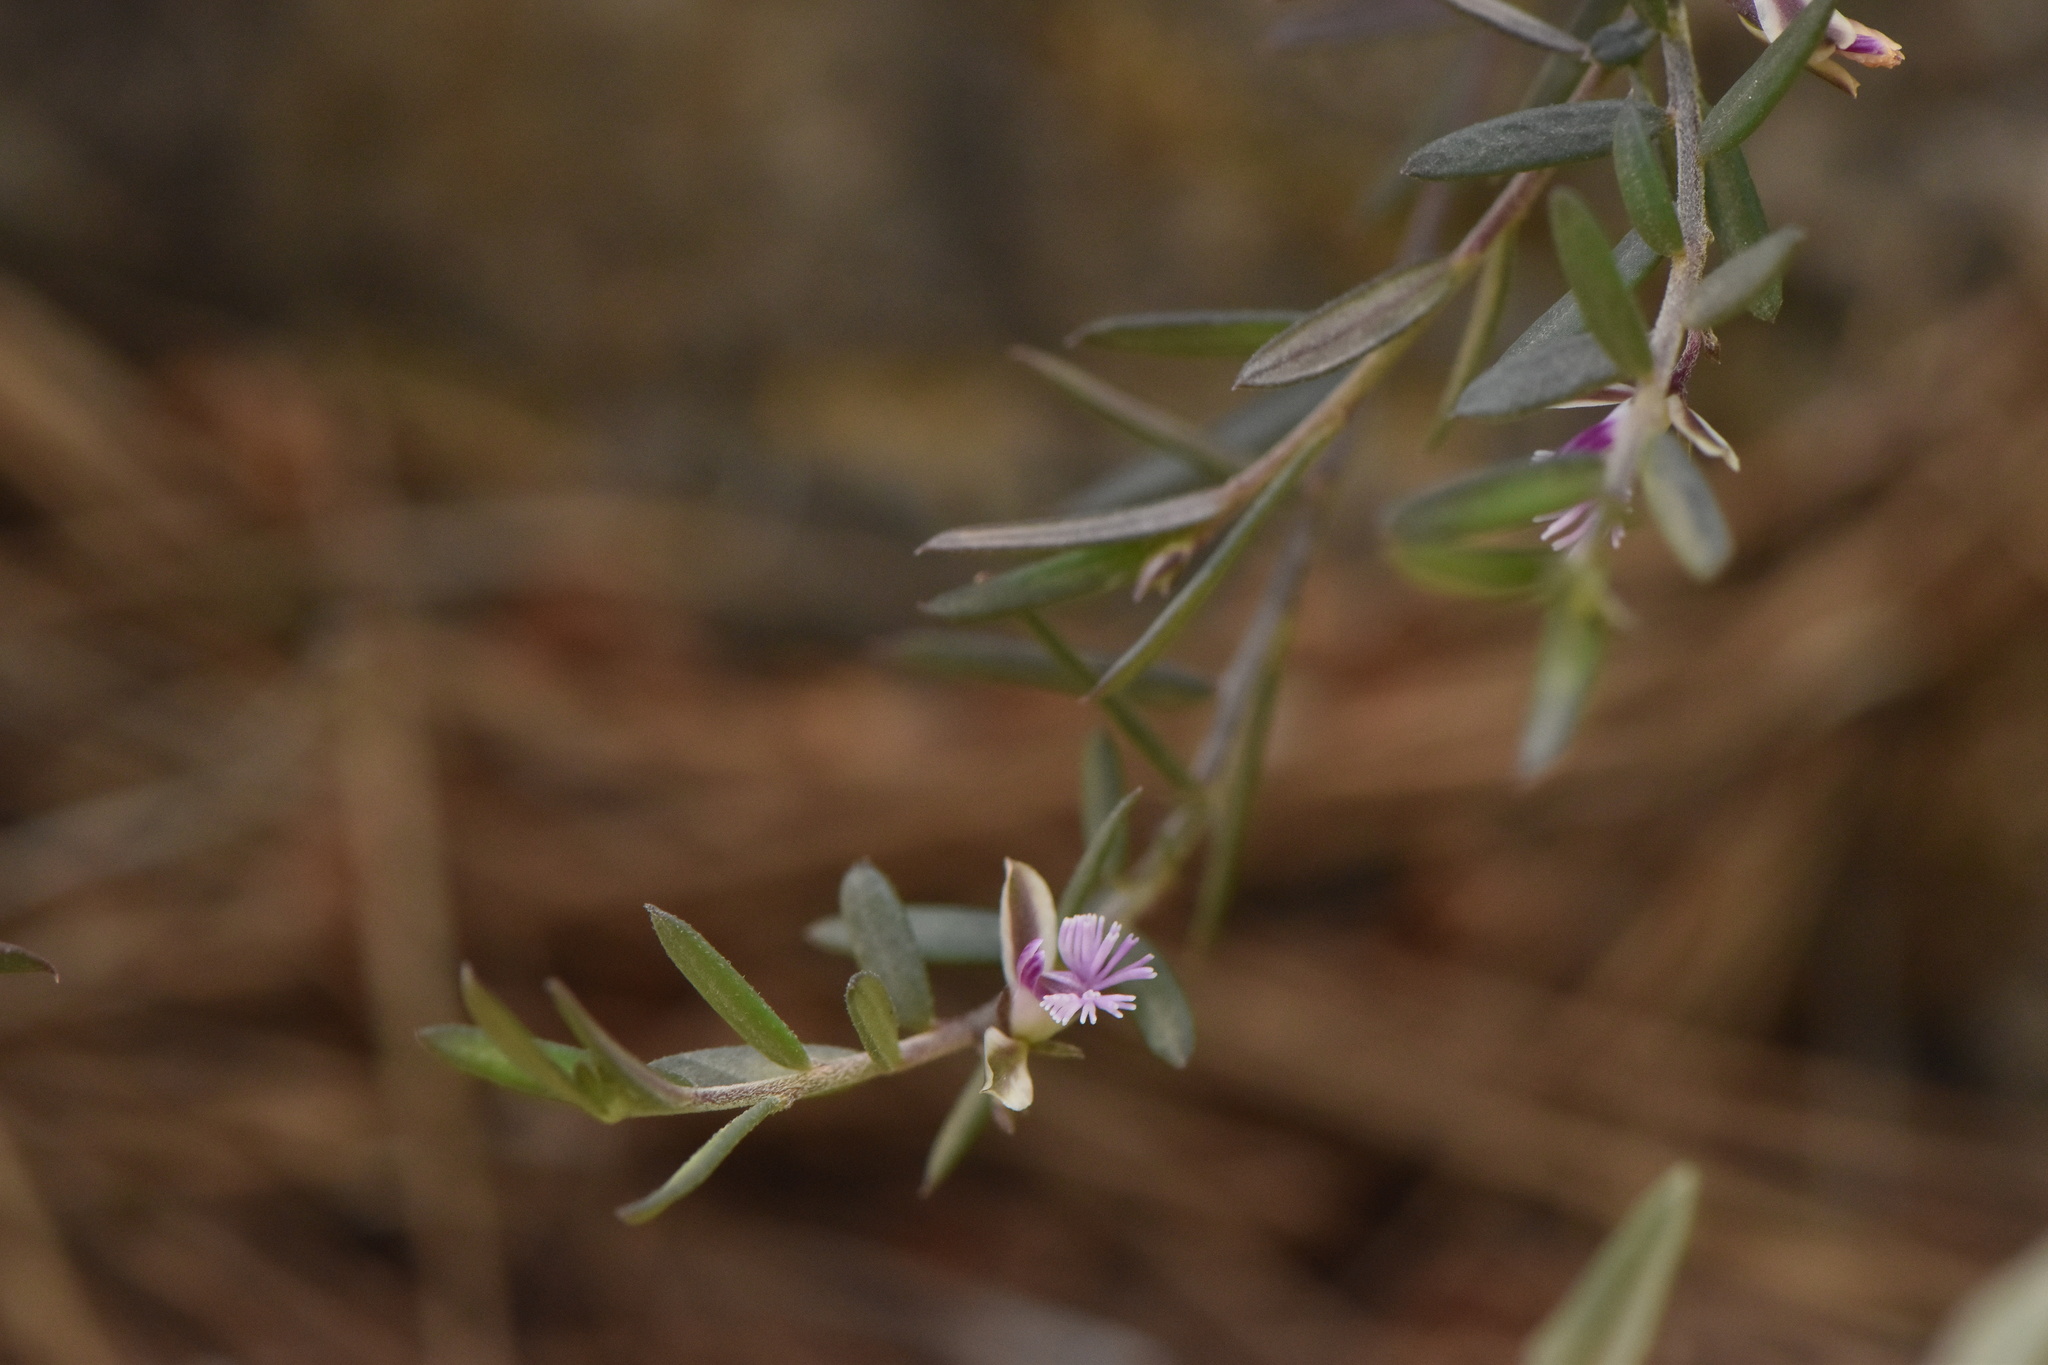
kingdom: Plantae
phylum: Tracheophyta
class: Magnoliopsida
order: Fabales
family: Polygalaceae
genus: Polygala
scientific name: Polygala rupestris
